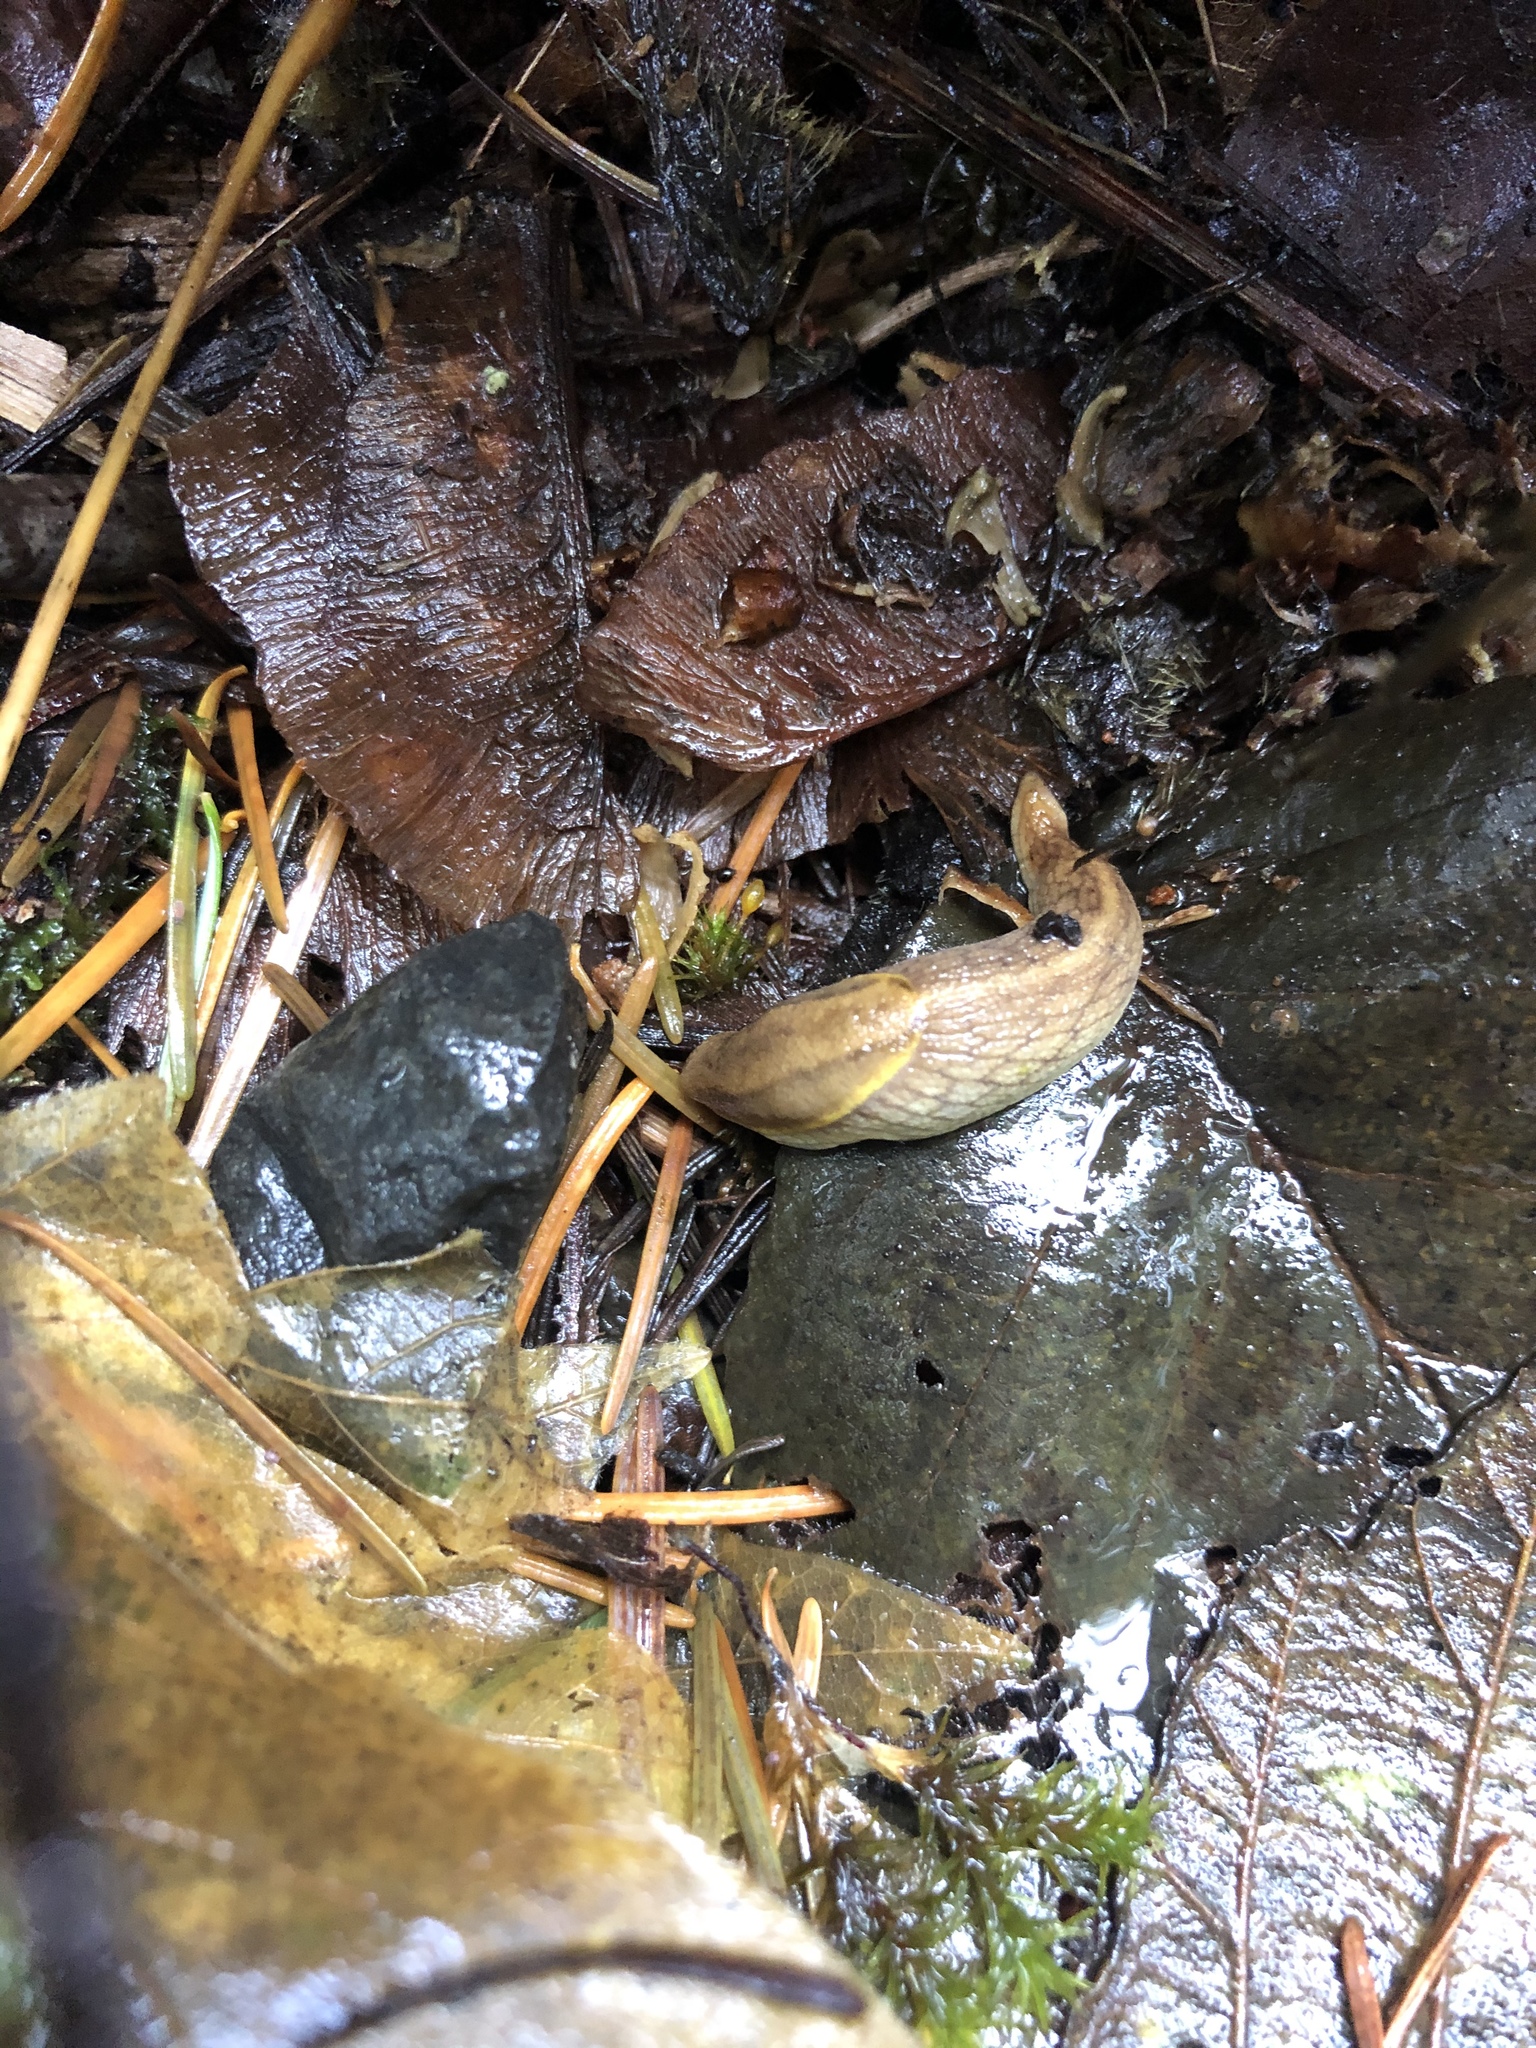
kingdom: Animalia
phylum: Mollusca
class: Gastropoda
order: Stylommatophora
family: Ariolimacidae
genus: Prophysaon
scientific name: Prophysaon foliolatum
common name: Yellow-bordered taildropper
